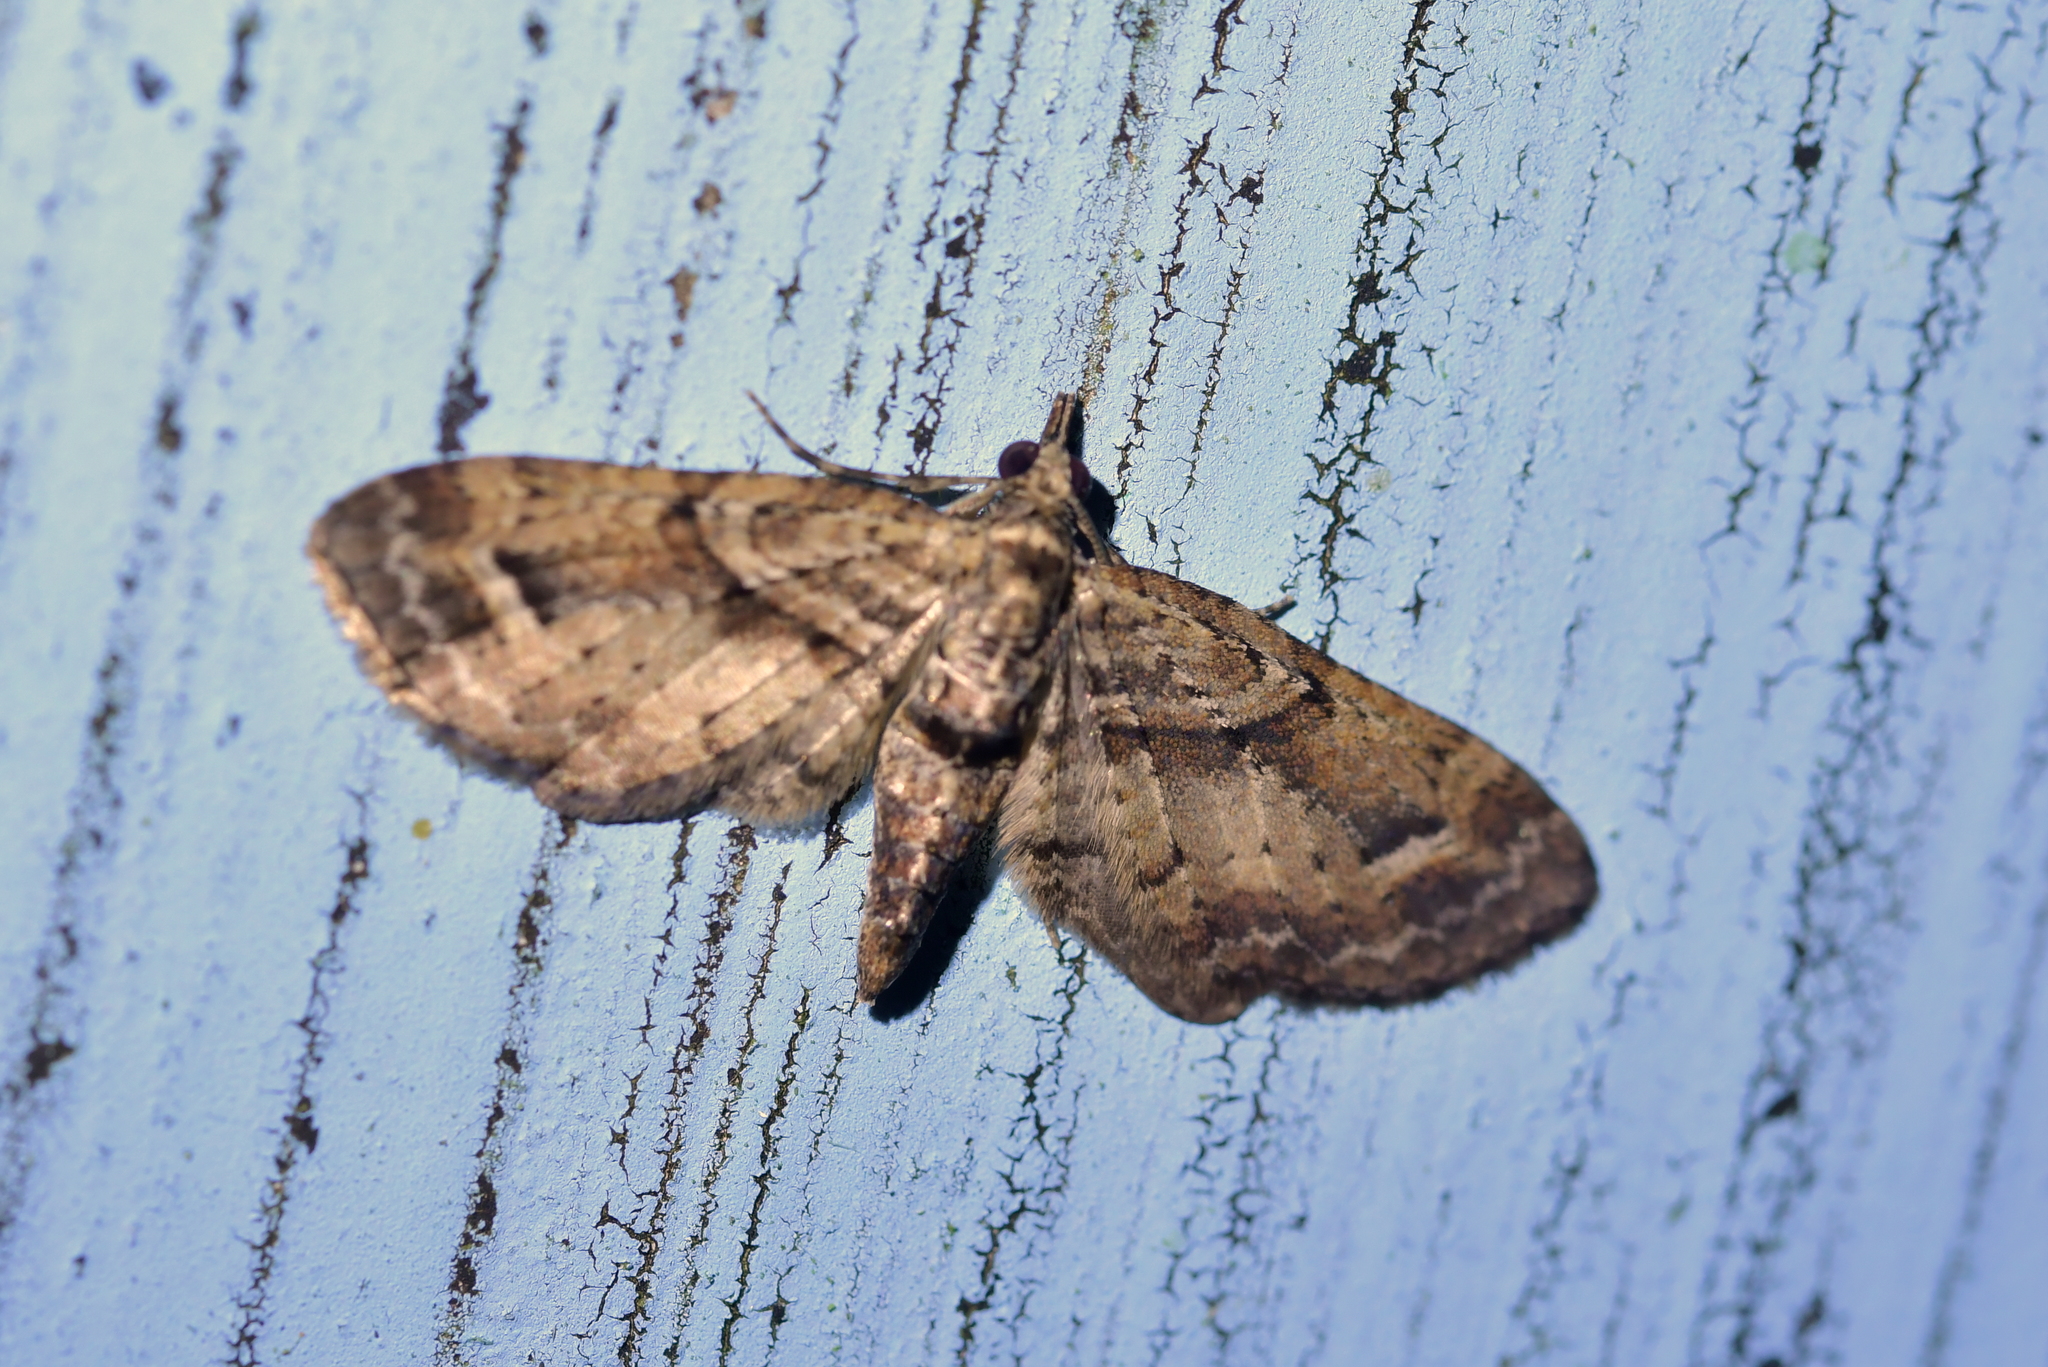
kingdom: Animalia
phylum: Arthropoda
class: Insecta
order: Lepidoptera
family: Geometridae
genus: Idaea
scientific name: Idaea mutanda
